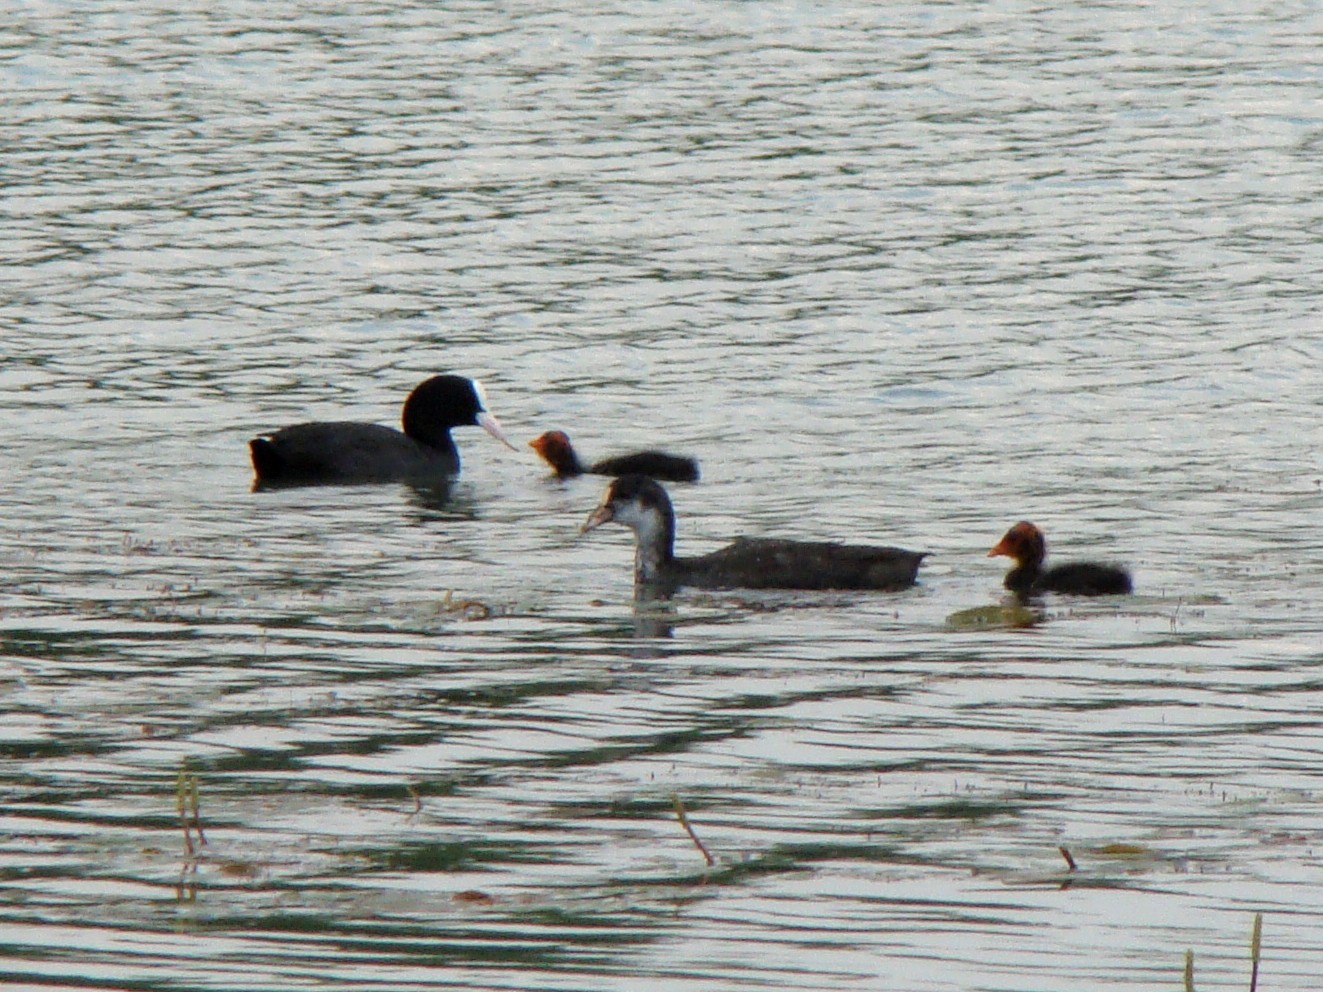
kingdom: Animalia
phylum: Chordata
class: Aves
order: Gruiformes
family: Rallidae
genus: Fulica
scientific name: Fulica atra
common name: Eurasian coot
